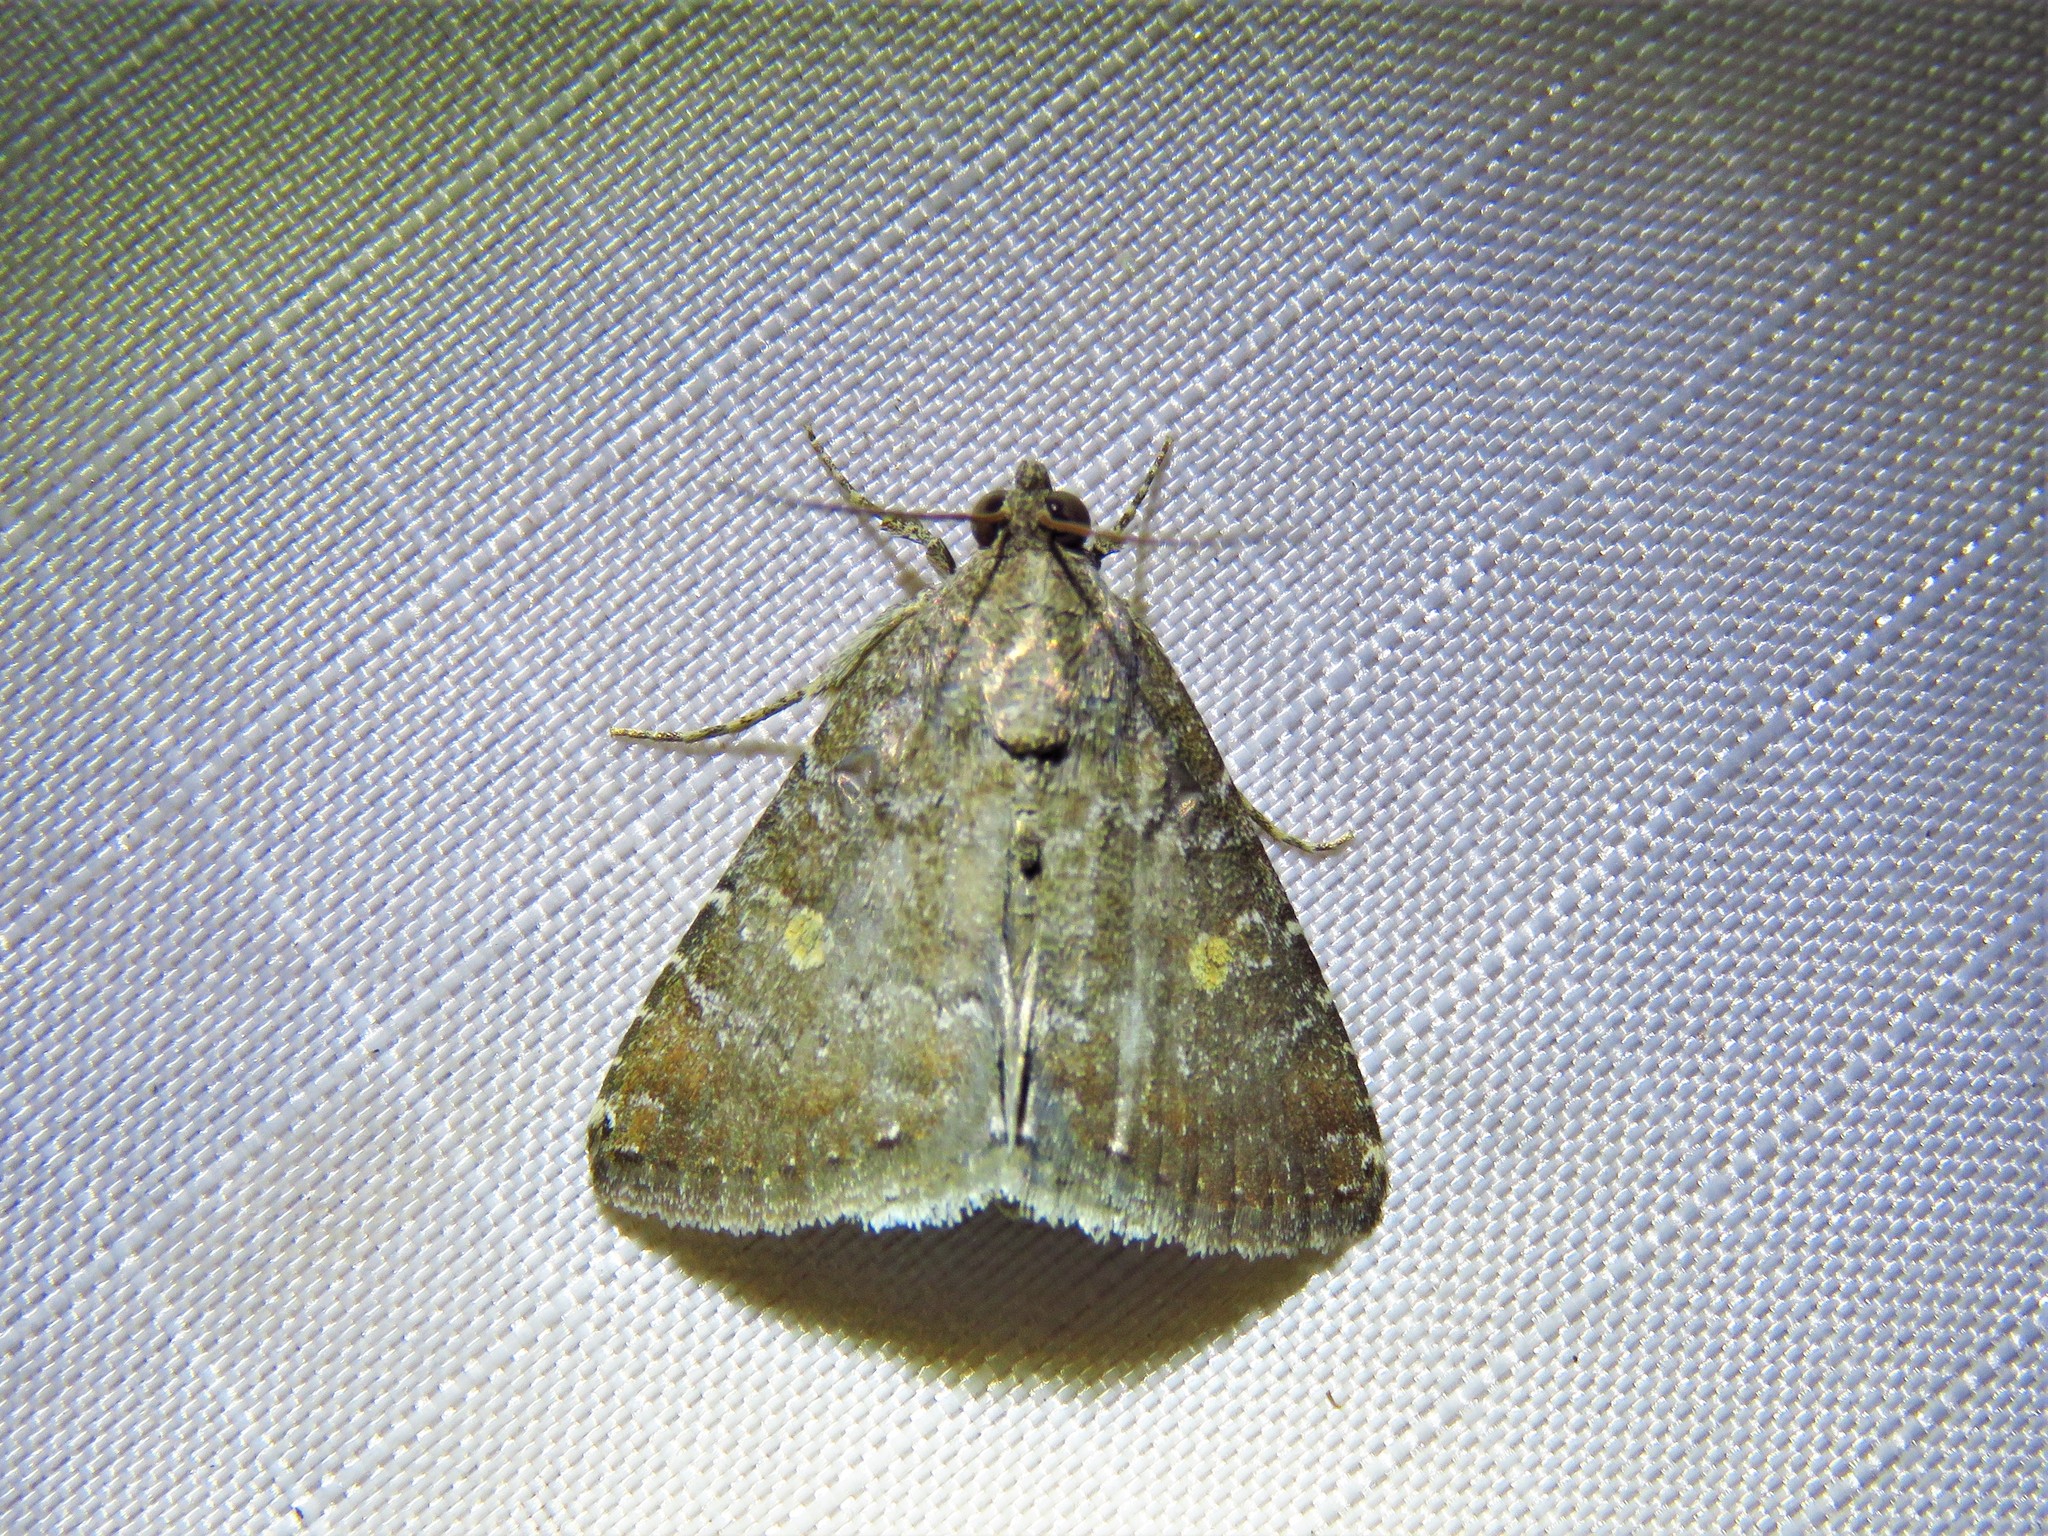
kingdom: Animalia
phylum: Arthropoda
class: Insecta
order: Lepidoptera
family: Noctuidae
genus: Amyna
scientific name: Amyna stricta
